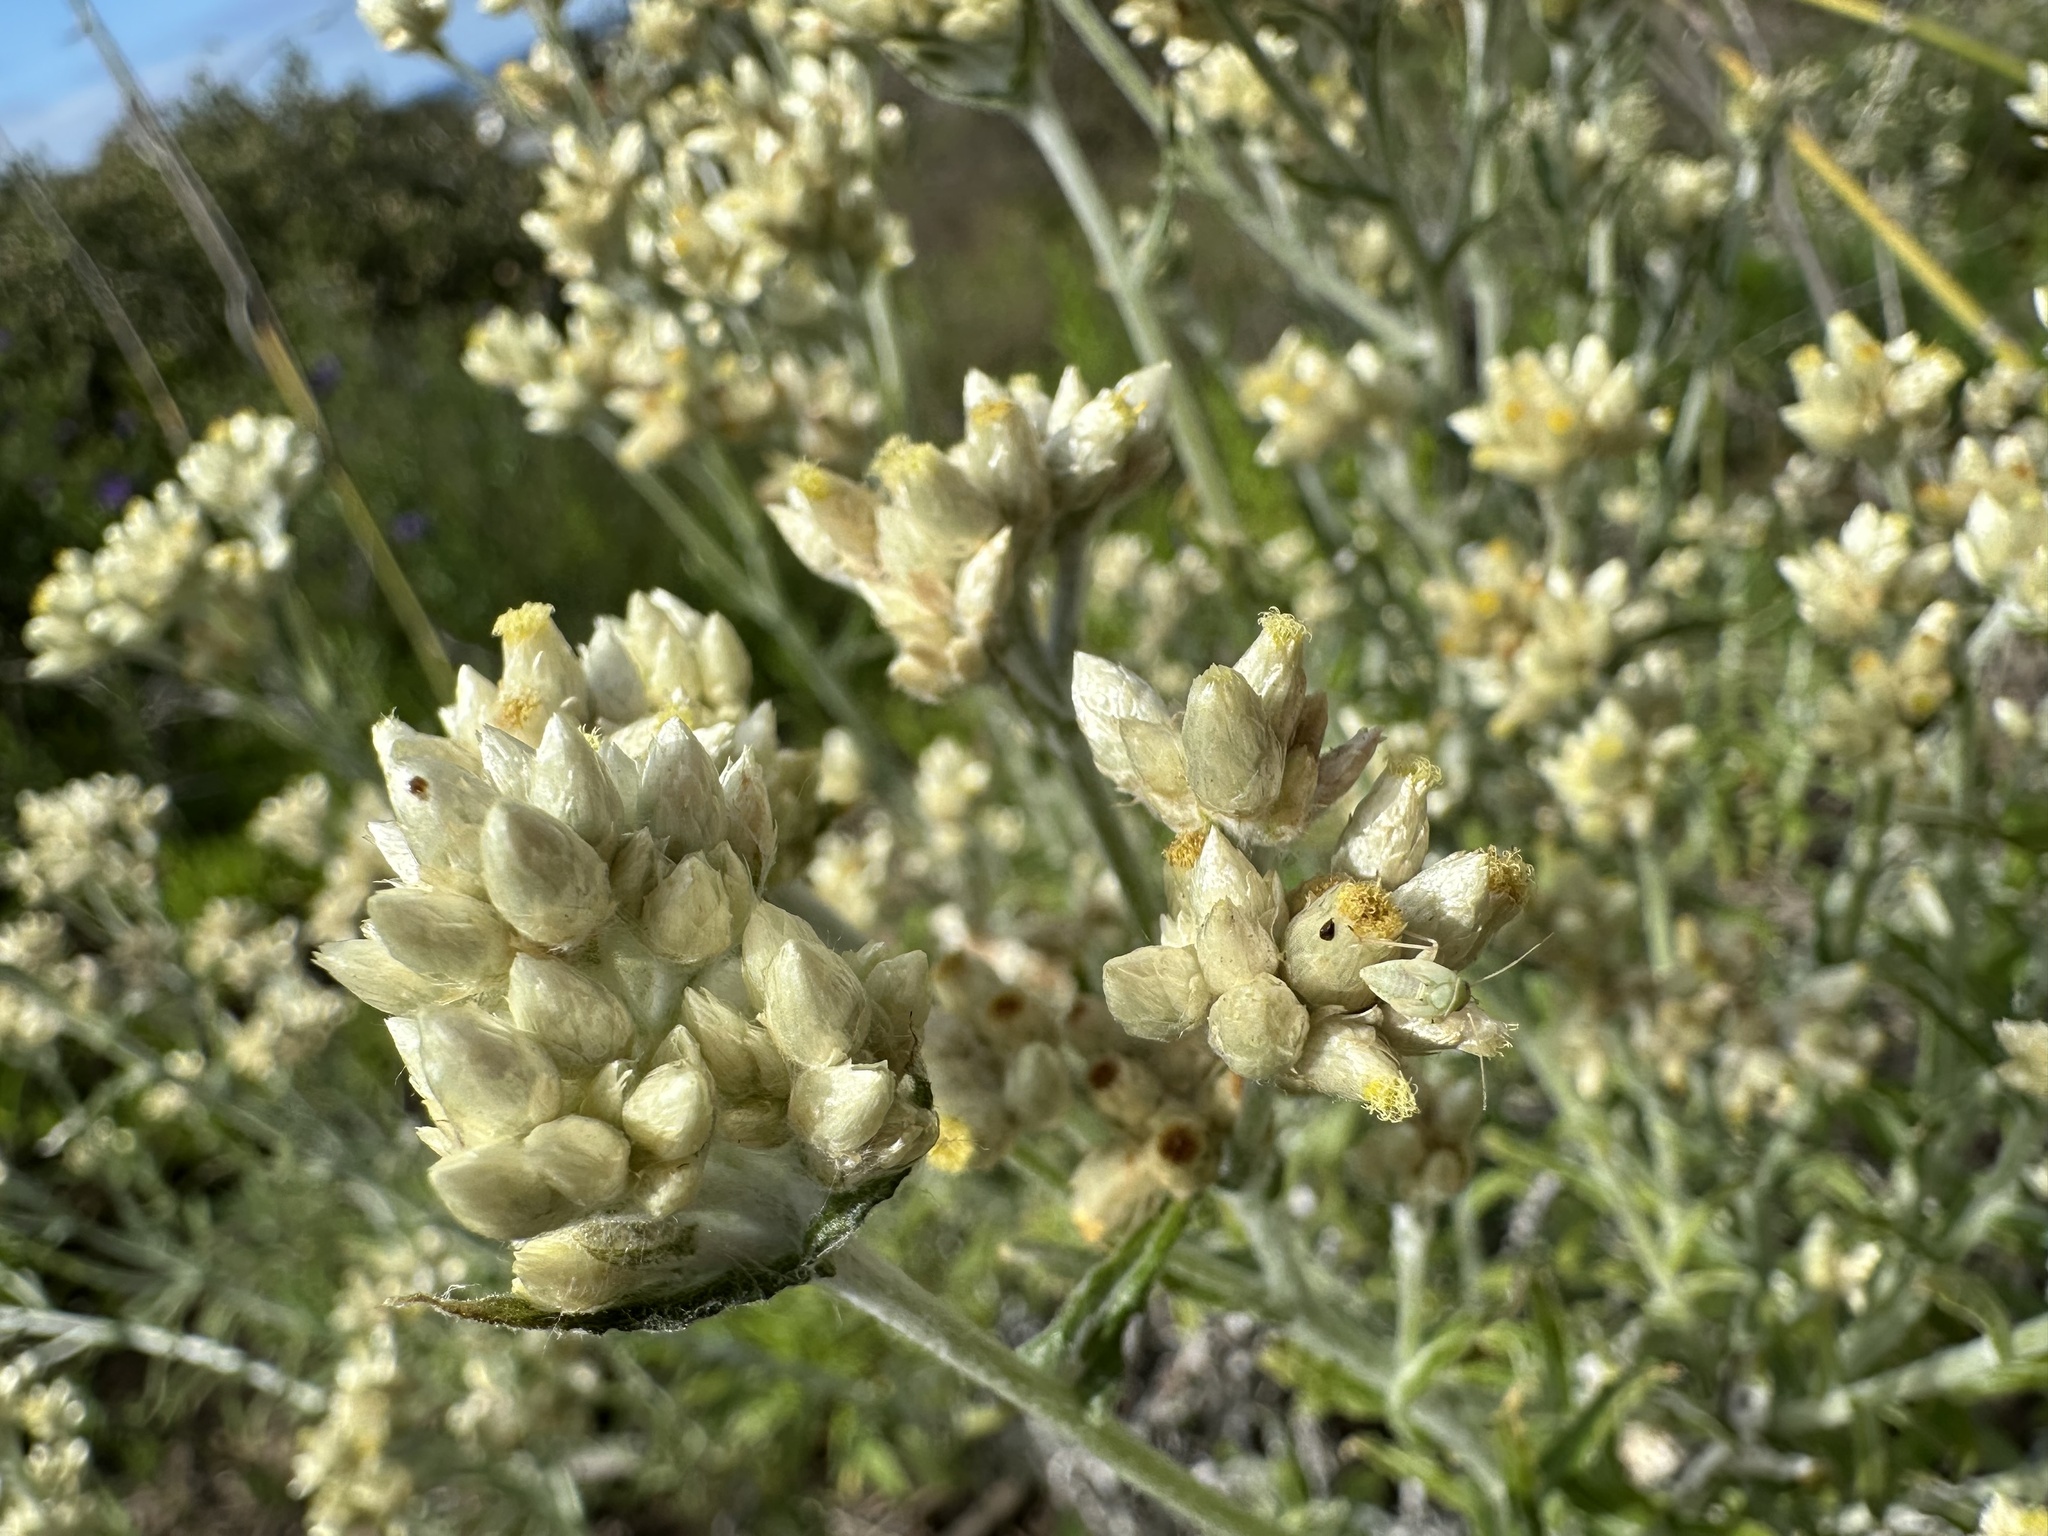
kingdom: Plantae
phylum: Tracheophyta
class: Magnoliopsida
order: Asterales
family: Asteraceae
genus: Pseudognaphalium
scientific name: Pseudognaphalium biolettii
